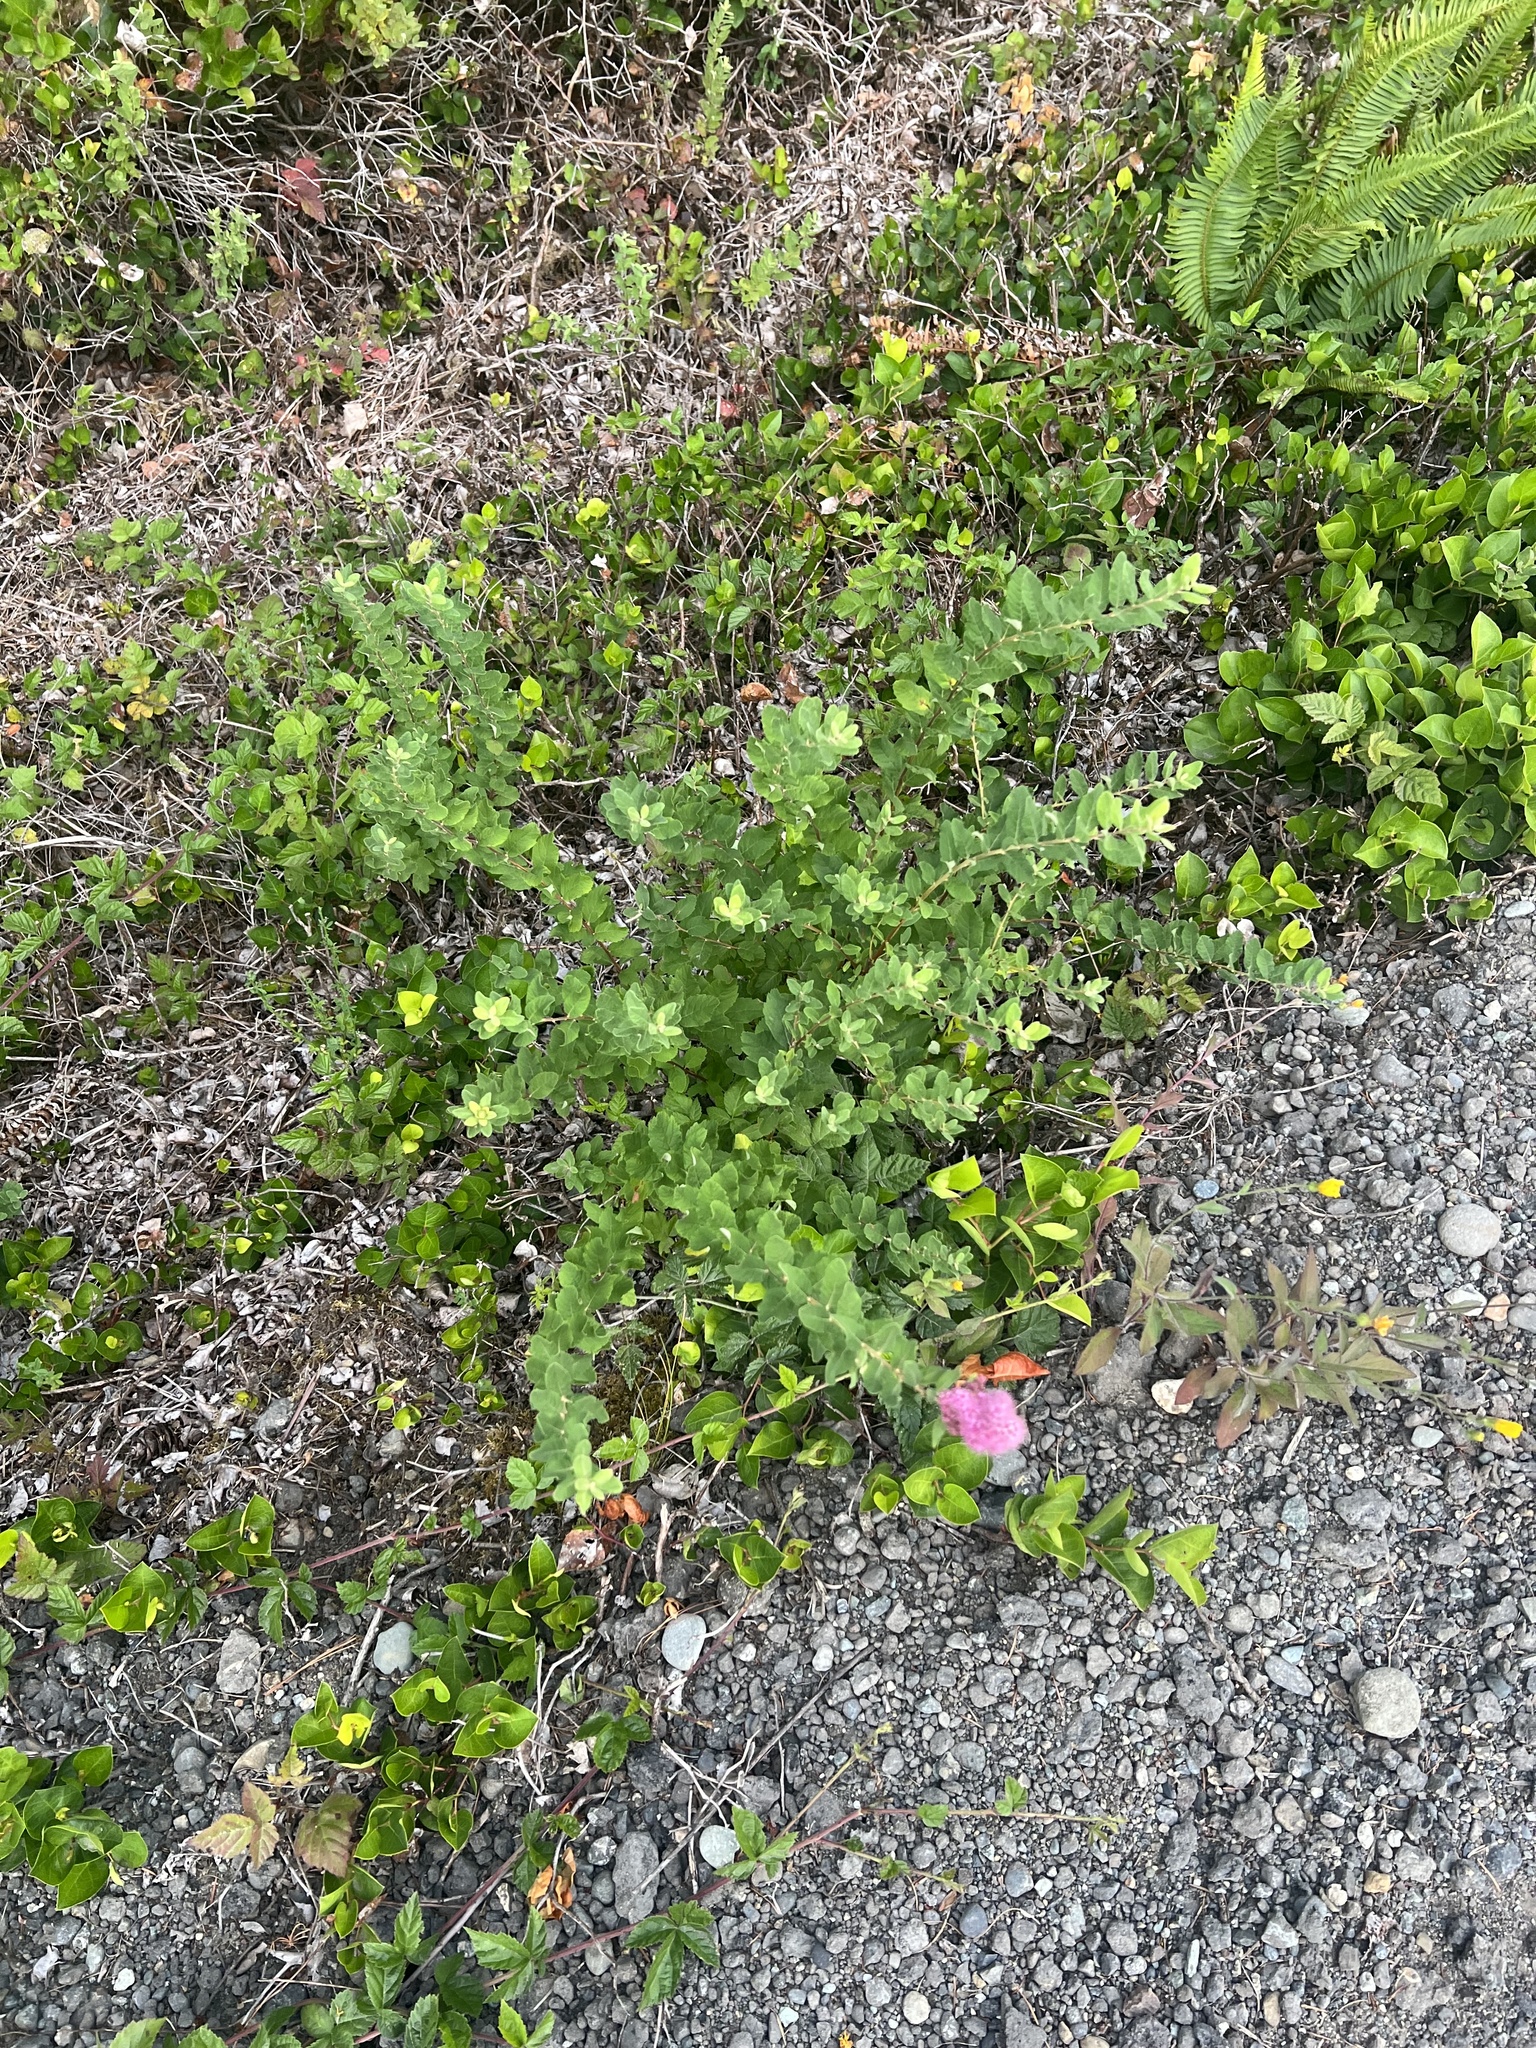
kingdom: Plantae
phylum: Tracheophyta
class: Magnoliopsida
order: Rosales
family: Rosaceae
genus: Spiraea
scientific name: Spiraea douglasii
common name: Steeplebush
